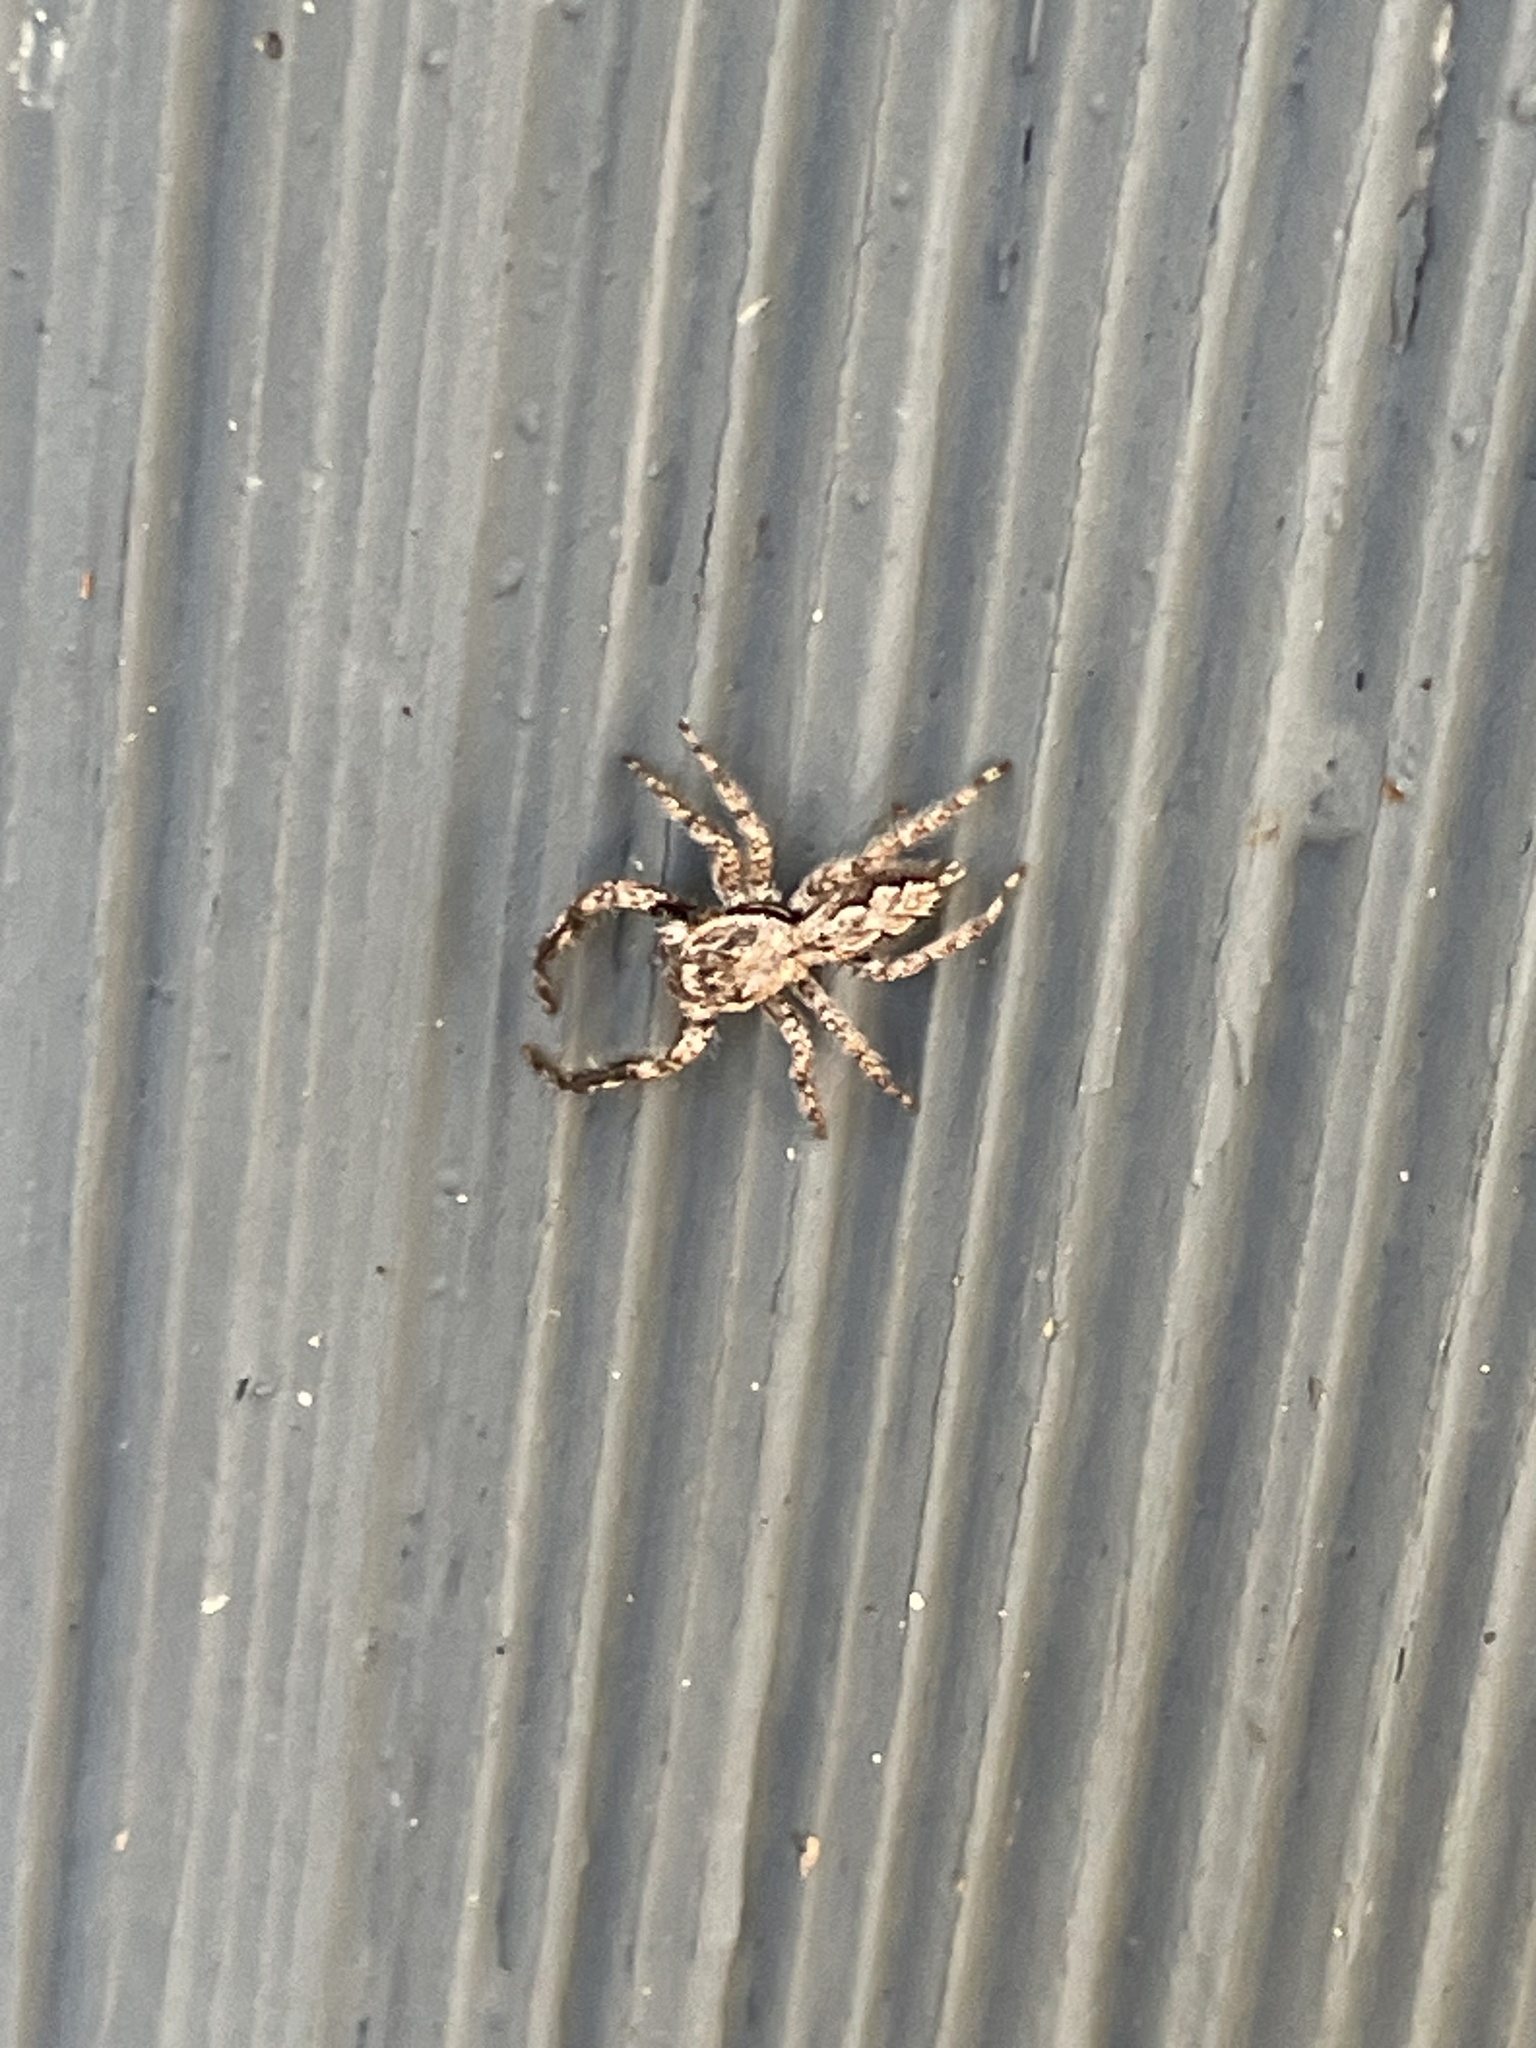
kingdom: Animalia
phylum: Arthropoda
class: Arachnida
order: Araneae
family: Salticidae
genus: Platycryptus
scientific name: Platycryptus undatus
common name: Tan jumping spider
